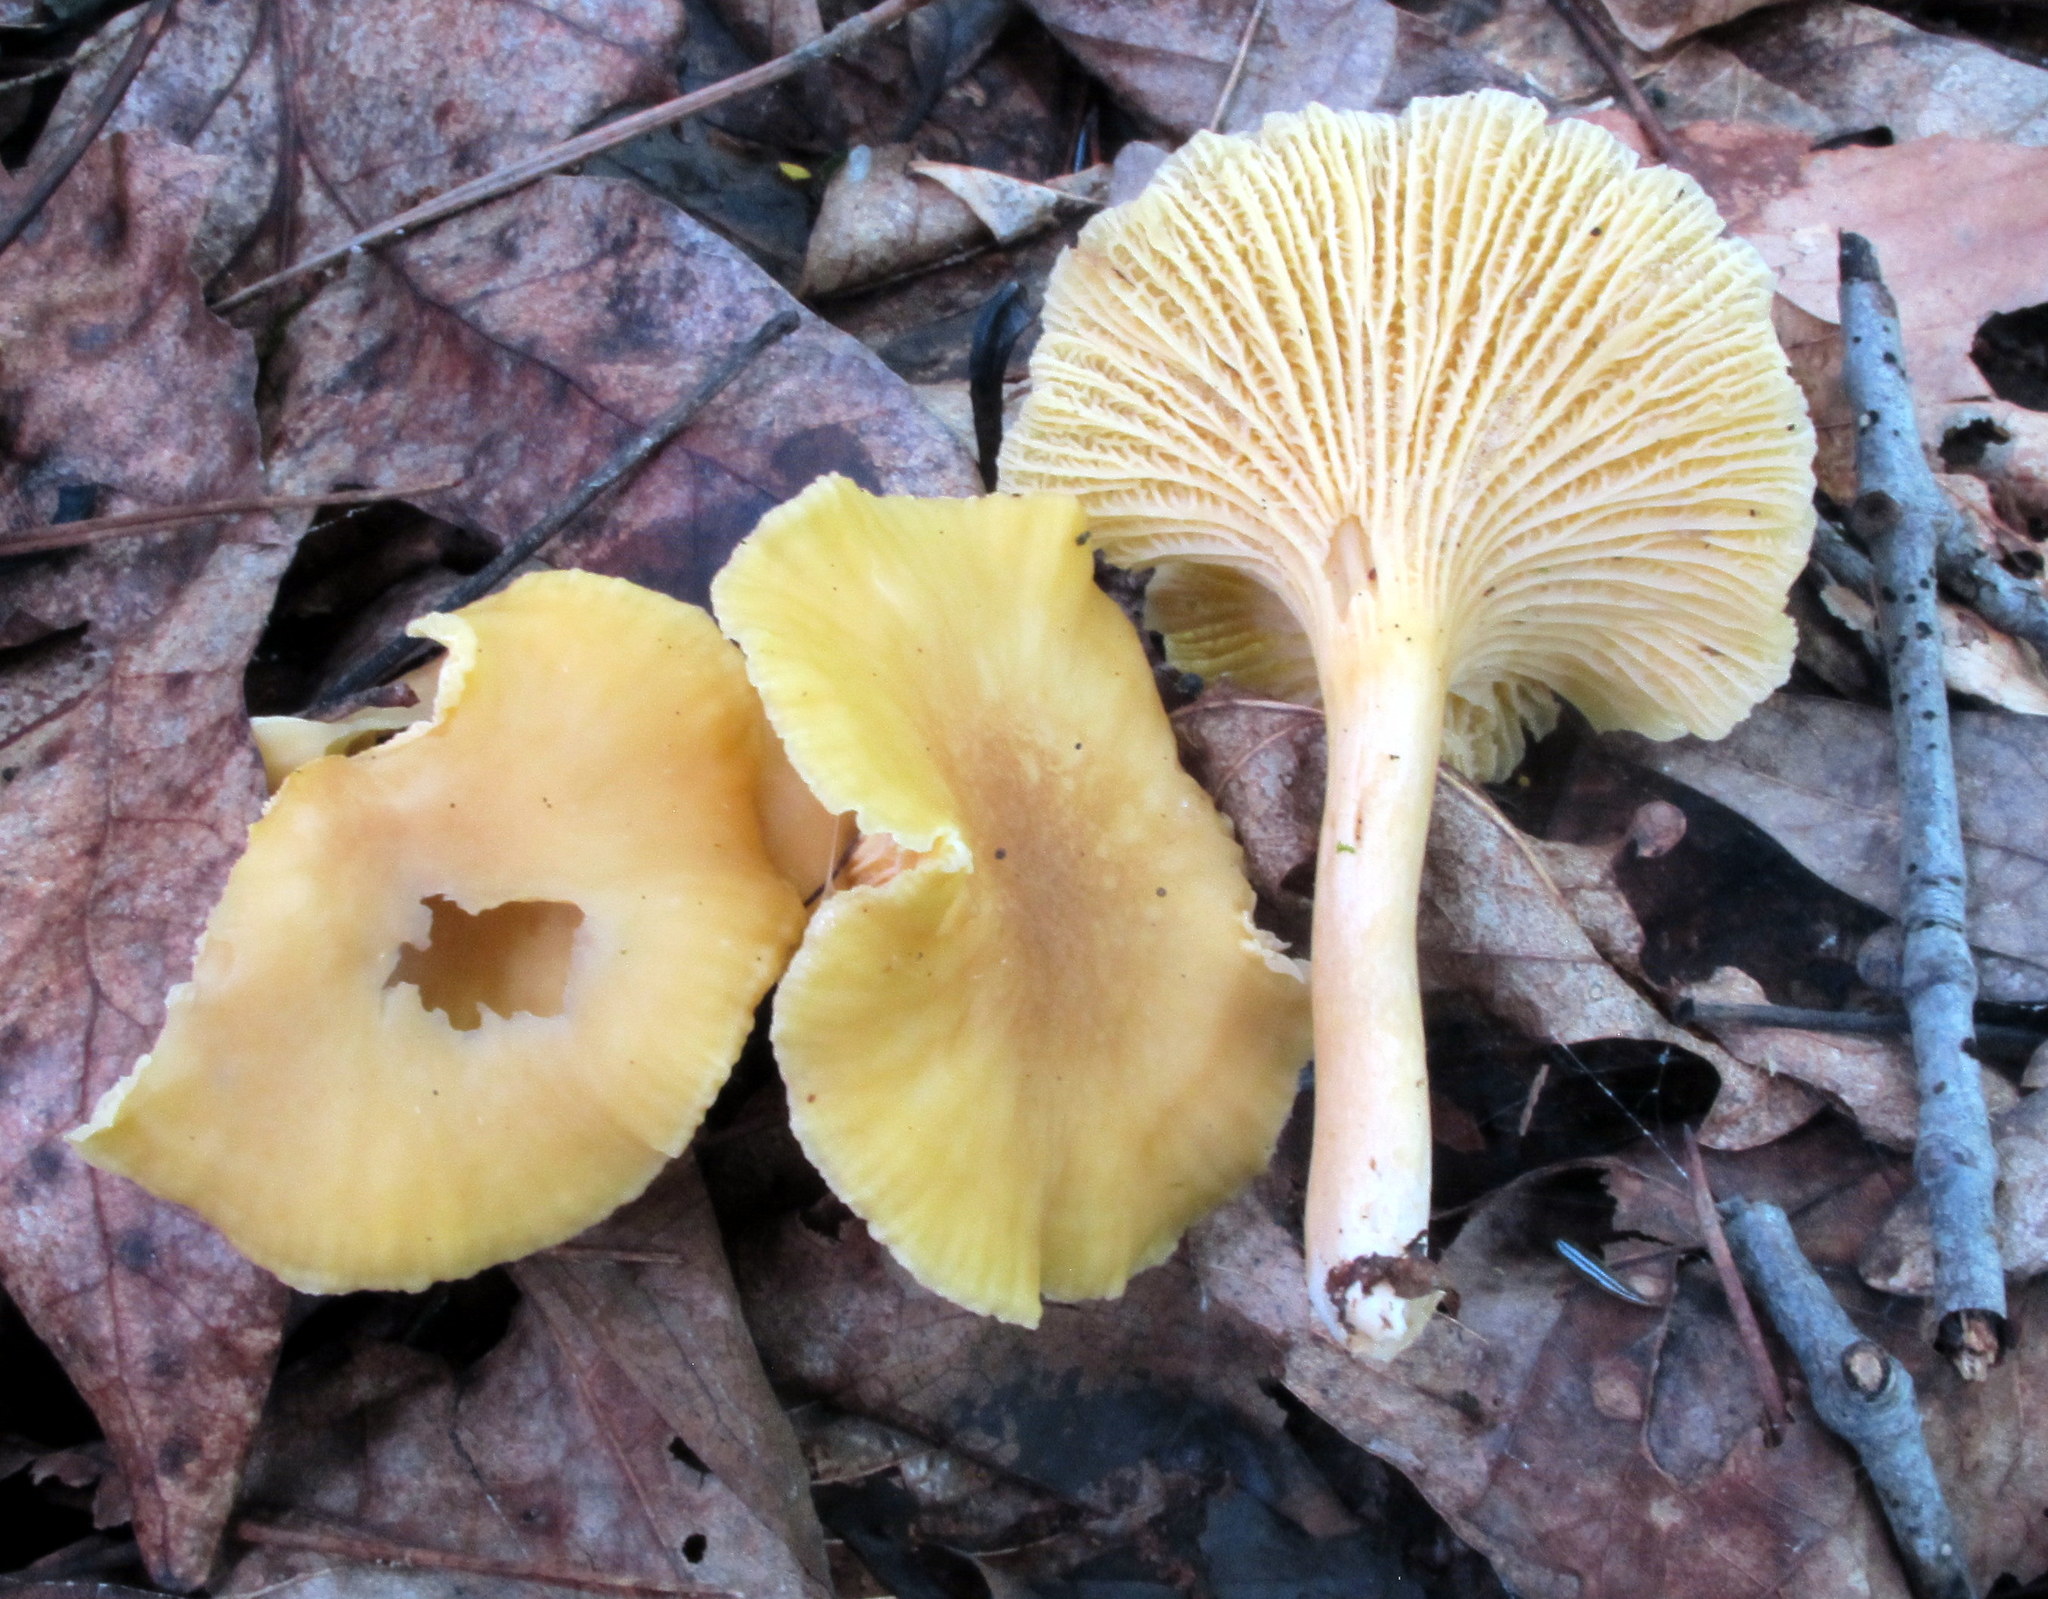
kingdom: Fungi
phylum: Basidiomycota
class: Agaricomycetes
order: Cantharellales
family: Hydnaceae
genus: Cantharellus
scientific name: Cantharellus appalachiensis
